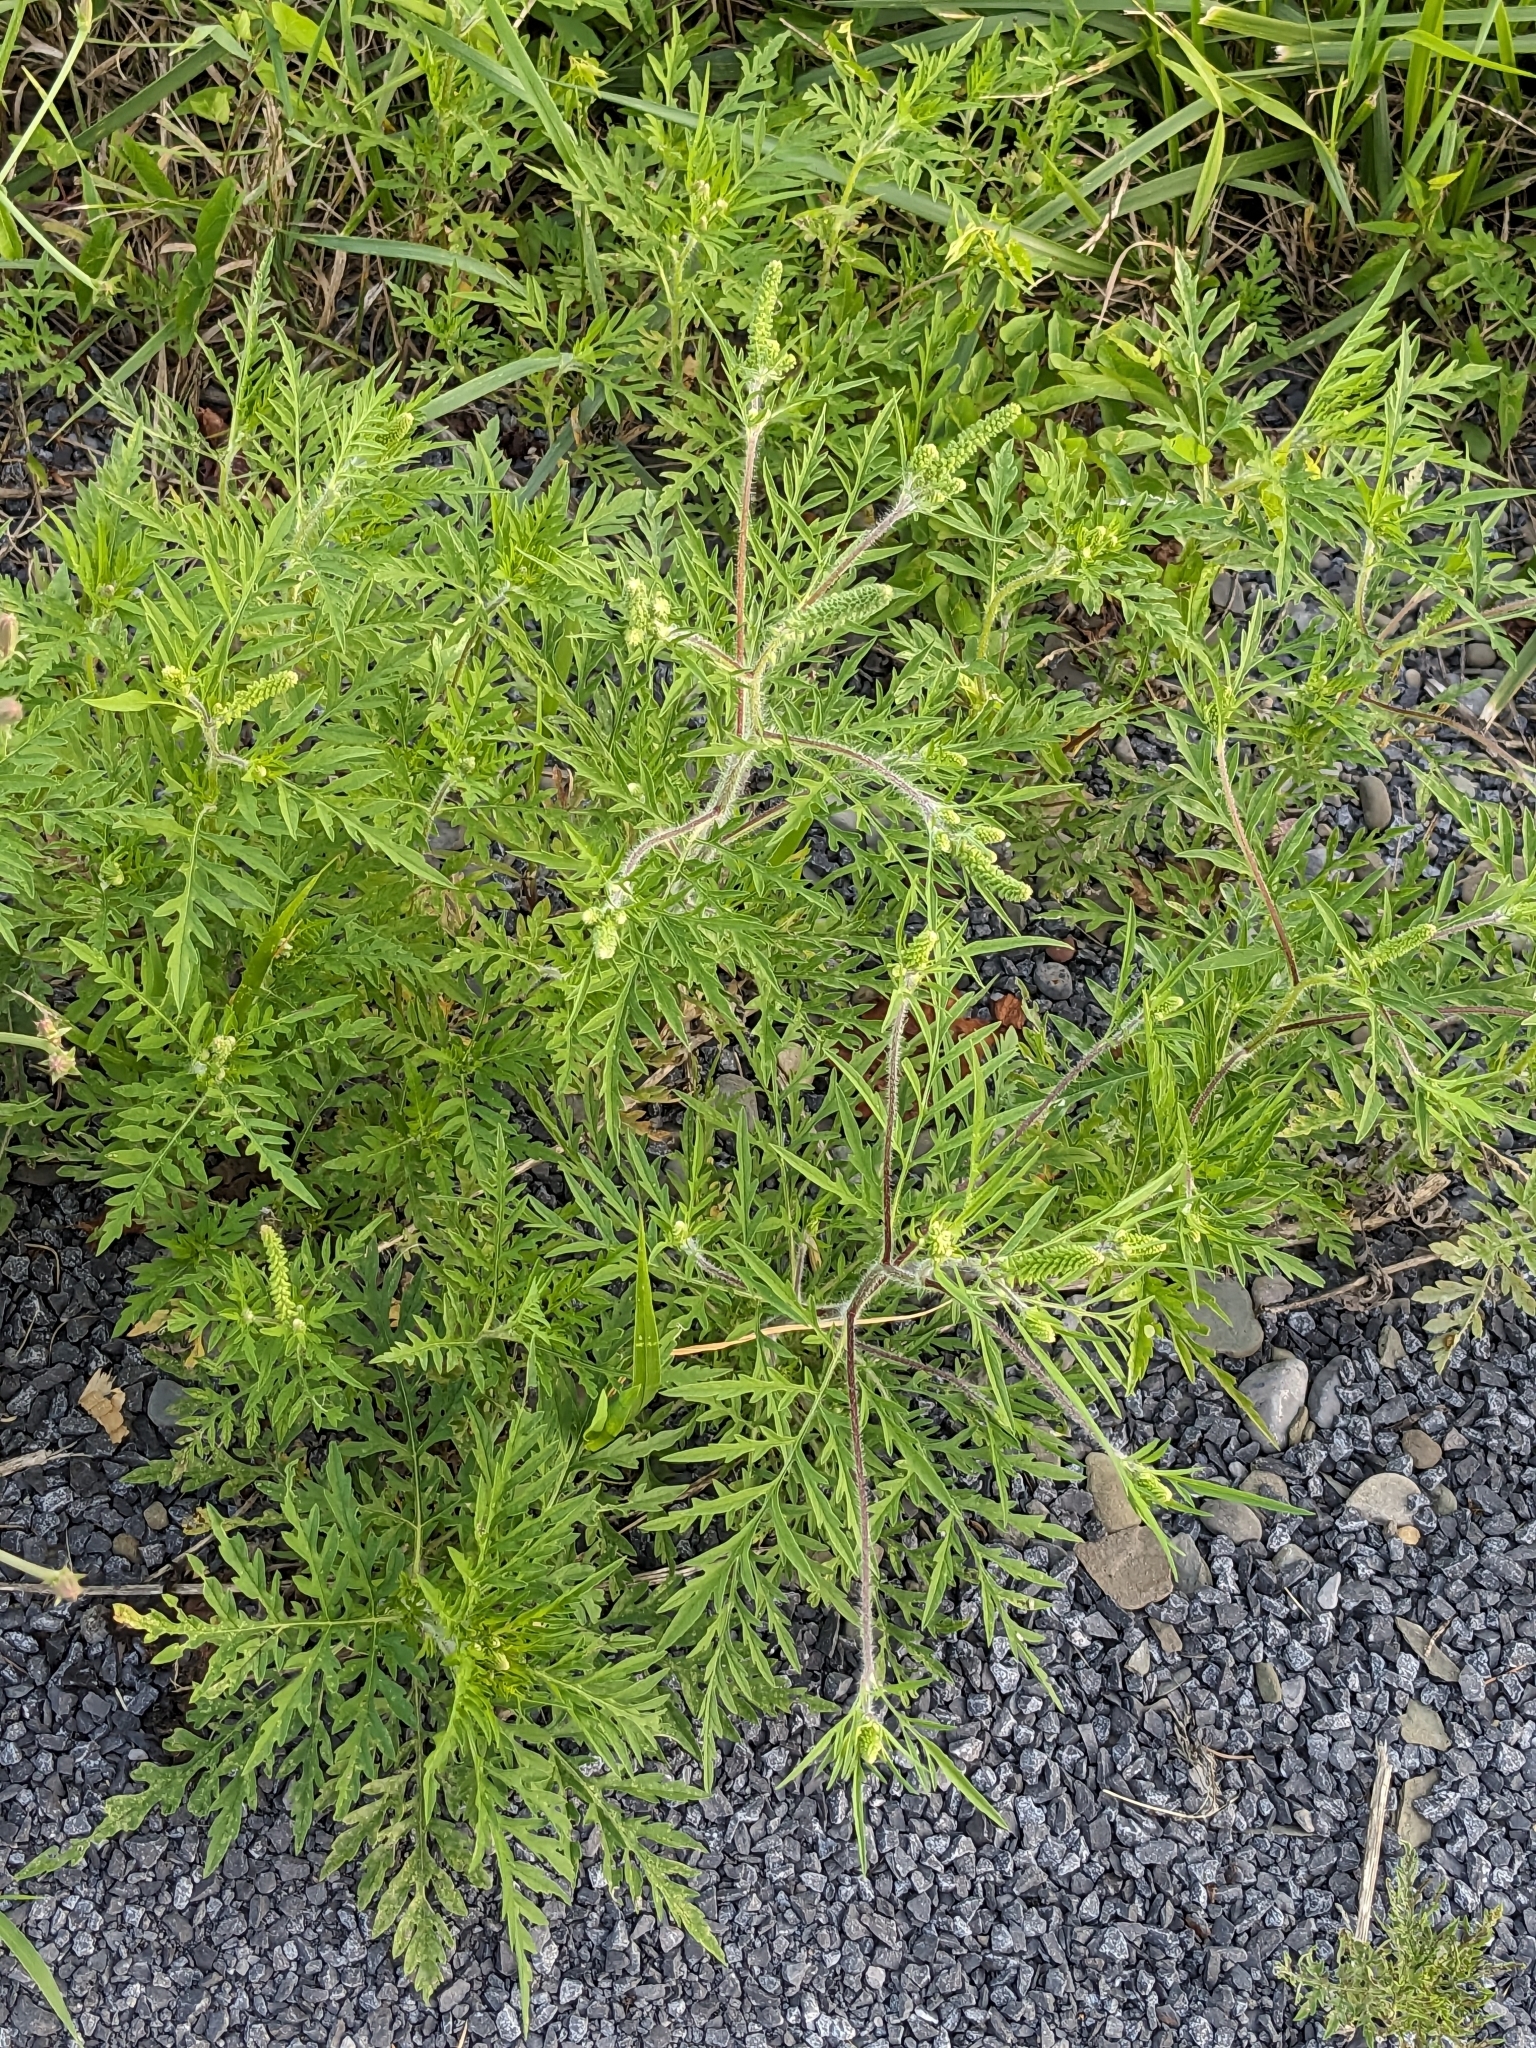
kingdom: Plantae
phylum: Tracheophyta
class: Magnoliopsida
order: Asterales
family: Asteraceae
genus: Ambrosia
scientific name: Ambrosia artemisiifolia
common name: Annual ragweed
